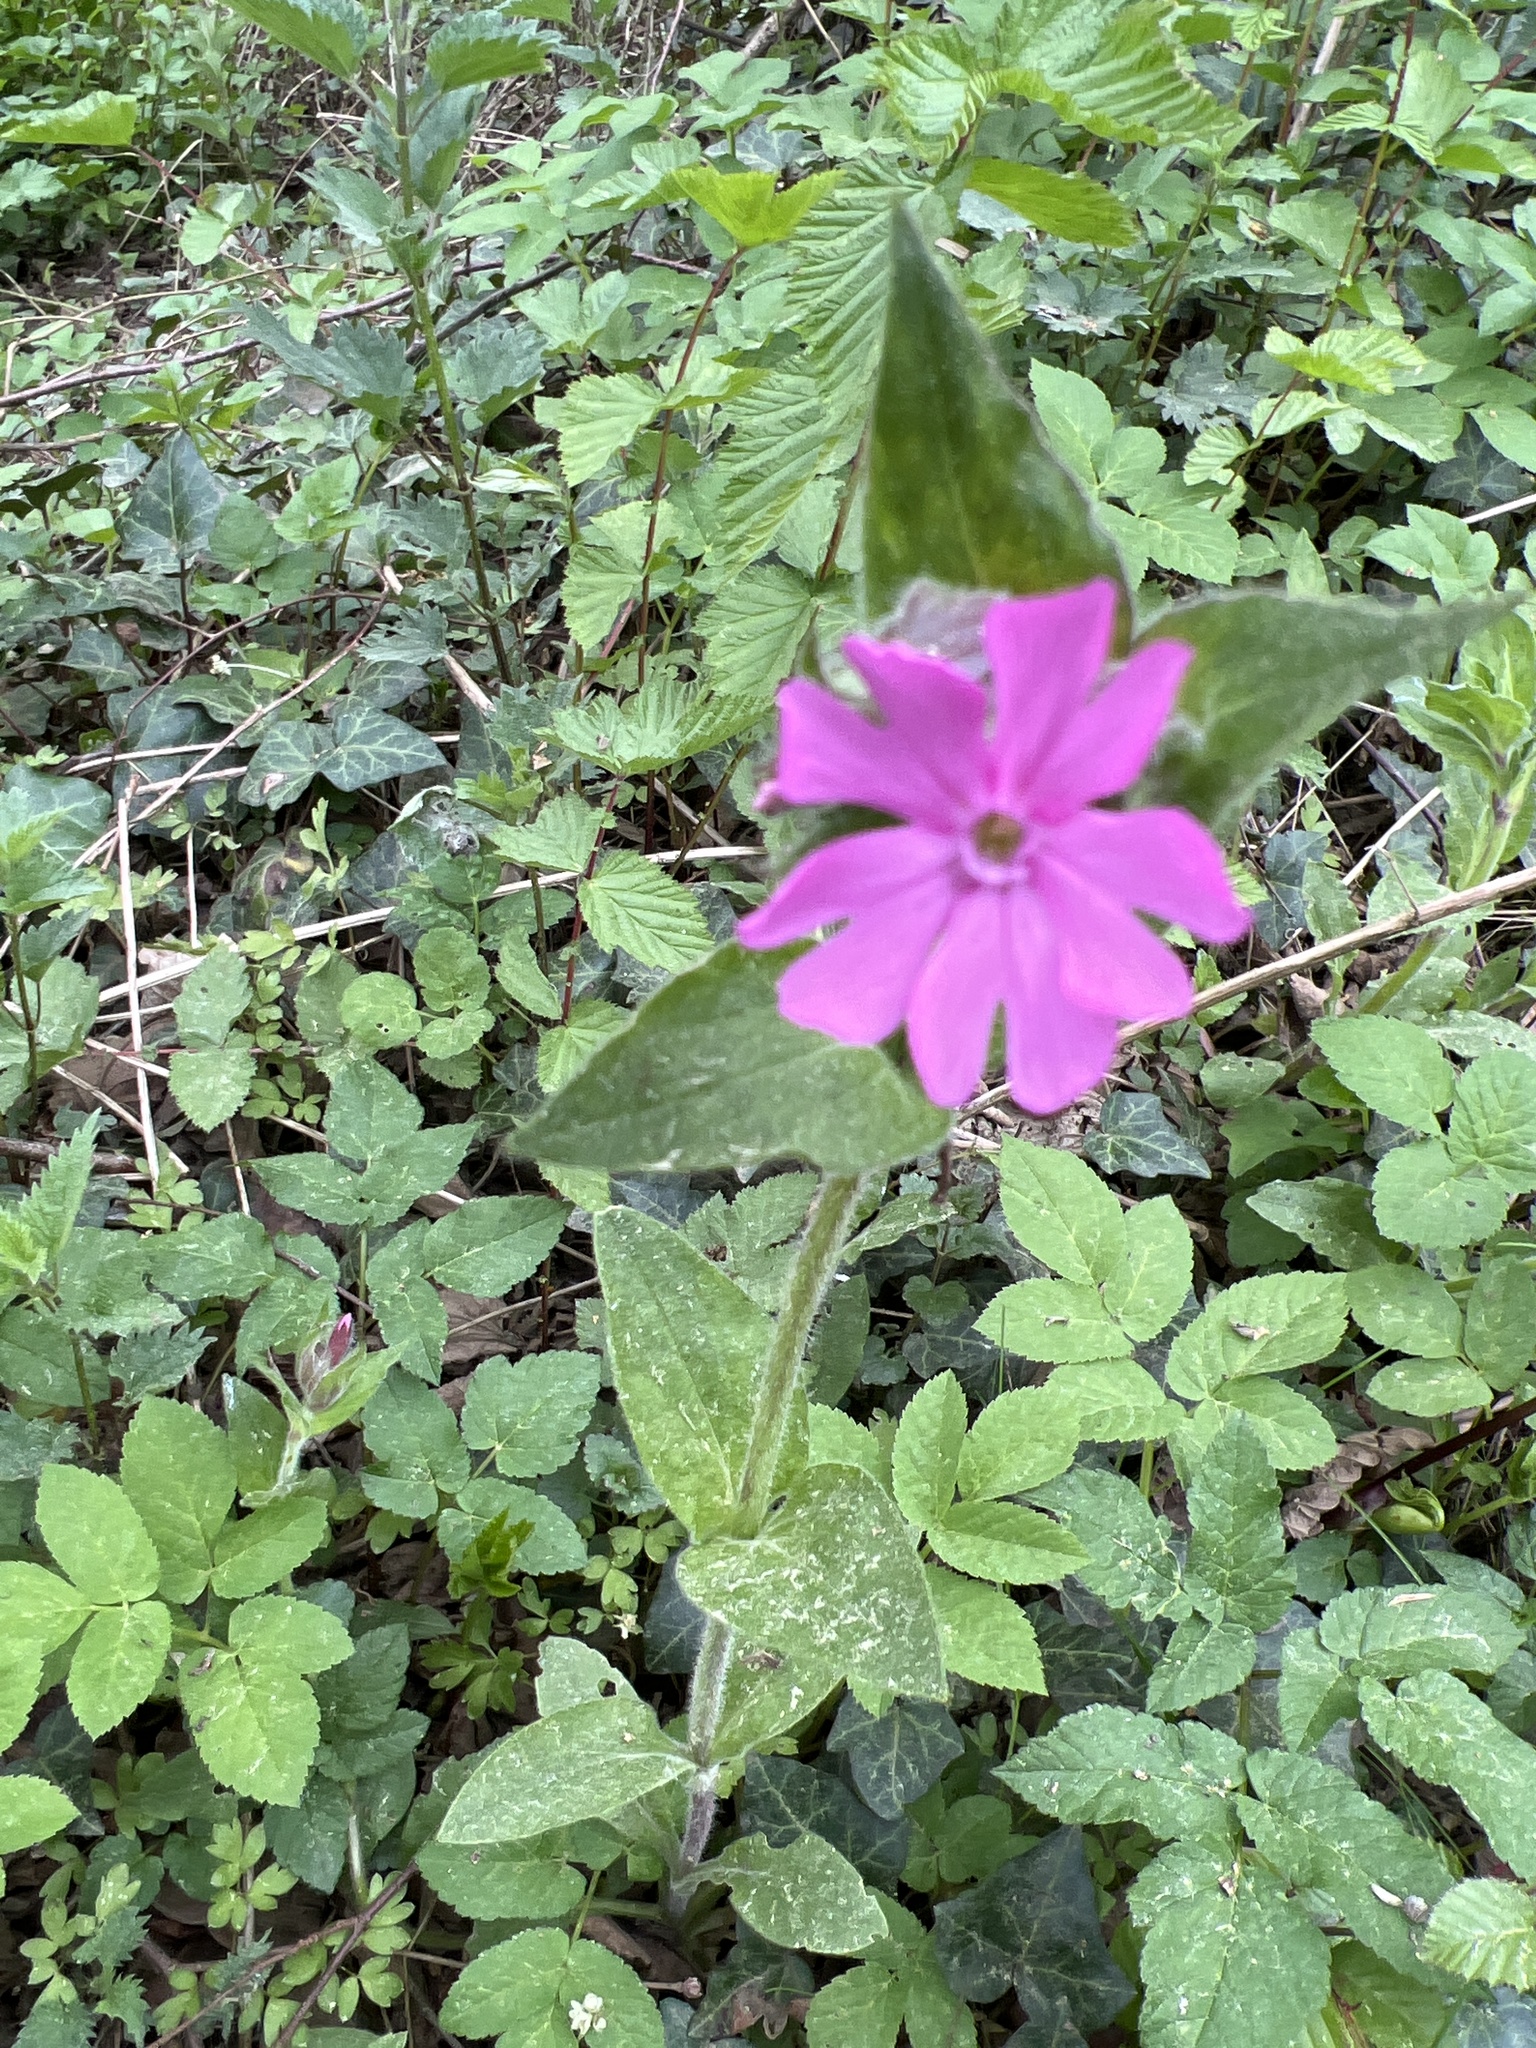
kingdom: Plantae
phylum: Tracheophyta
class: Magnoliopsida
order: Caryophyllales
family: Caryophyllaceae
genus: Silene
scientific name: Silene dioica
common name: Red campion
